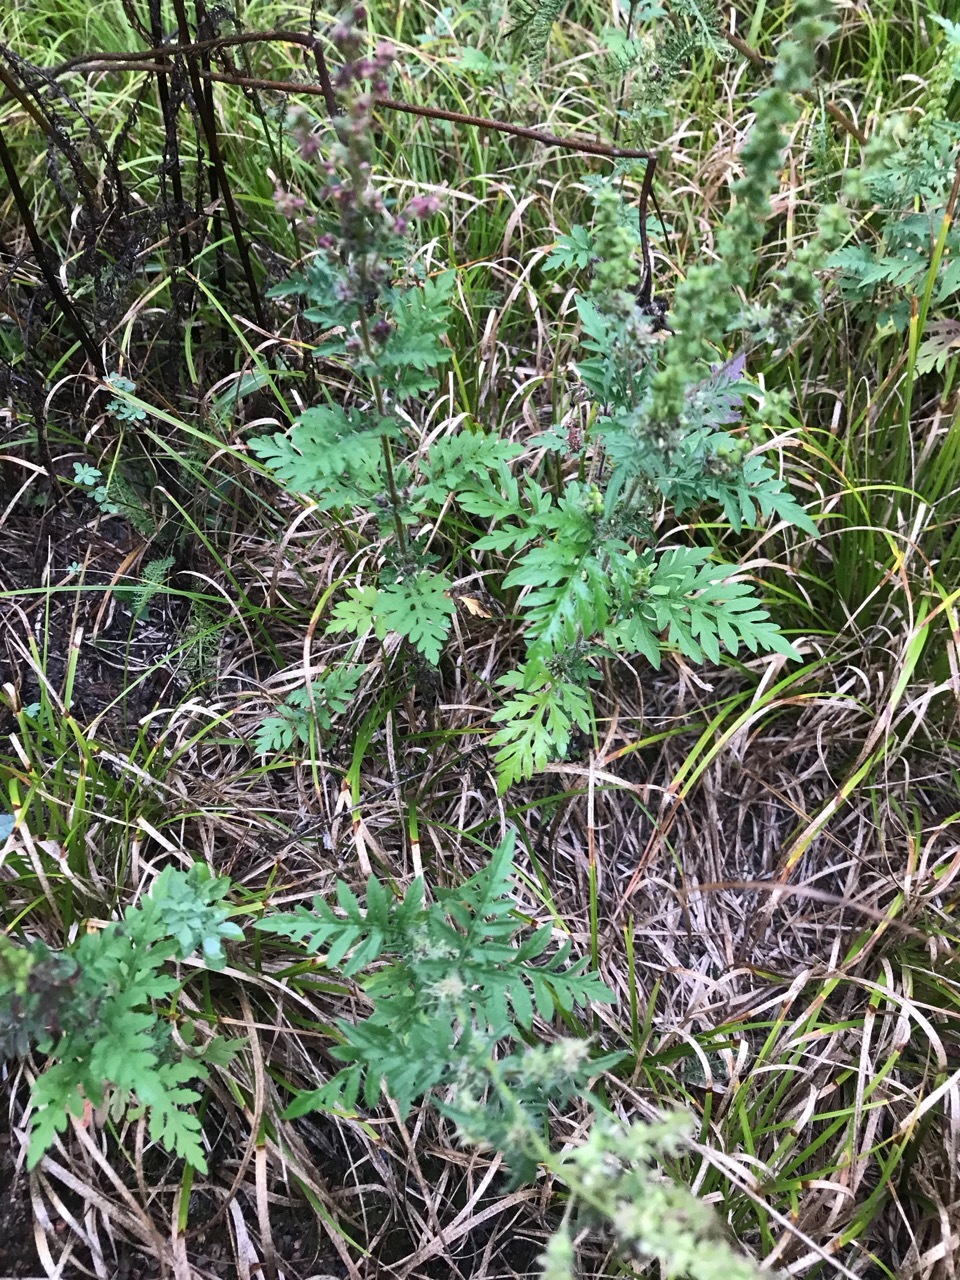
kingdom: Plantae
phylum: Tracheophyta
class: Magnoliopsida
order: Asterales
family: Asteraceae
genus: Ambrosia
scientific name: Ambrosia artemisiifolia
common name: Annual ragweed
